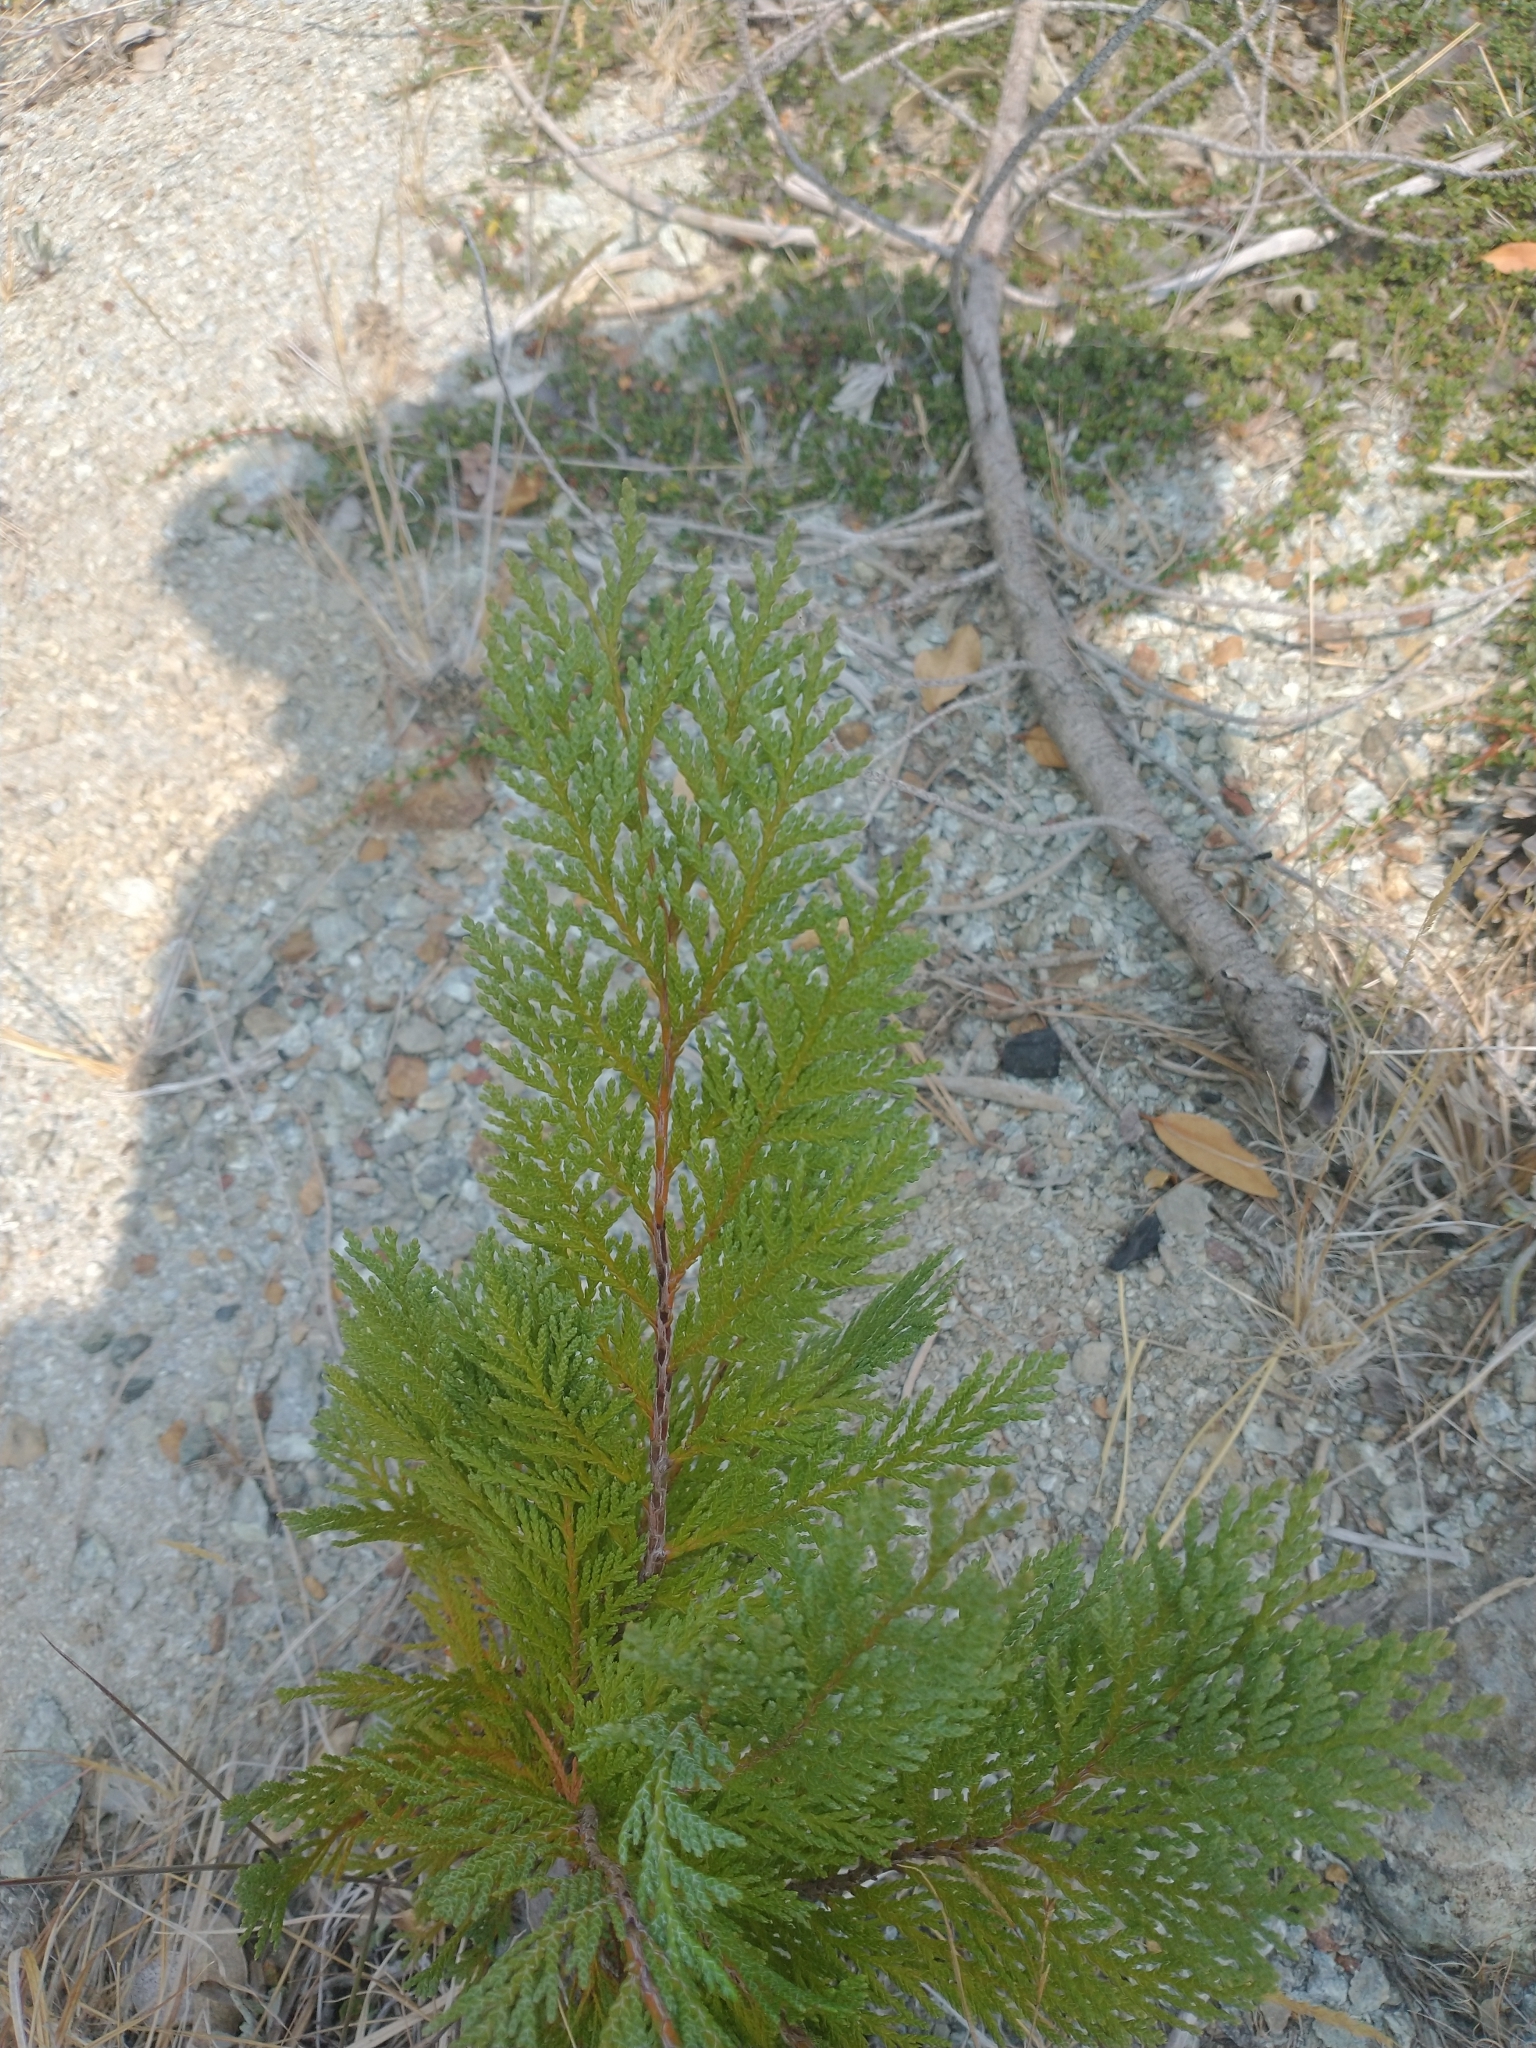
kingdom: Plantae
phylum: Tracheophyta
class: Pinopsida
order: Pinales
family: Cupressaceae
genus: Chamaecyparis
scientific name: Chamaecyparis lawsoniana
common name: Lawson's cypress
